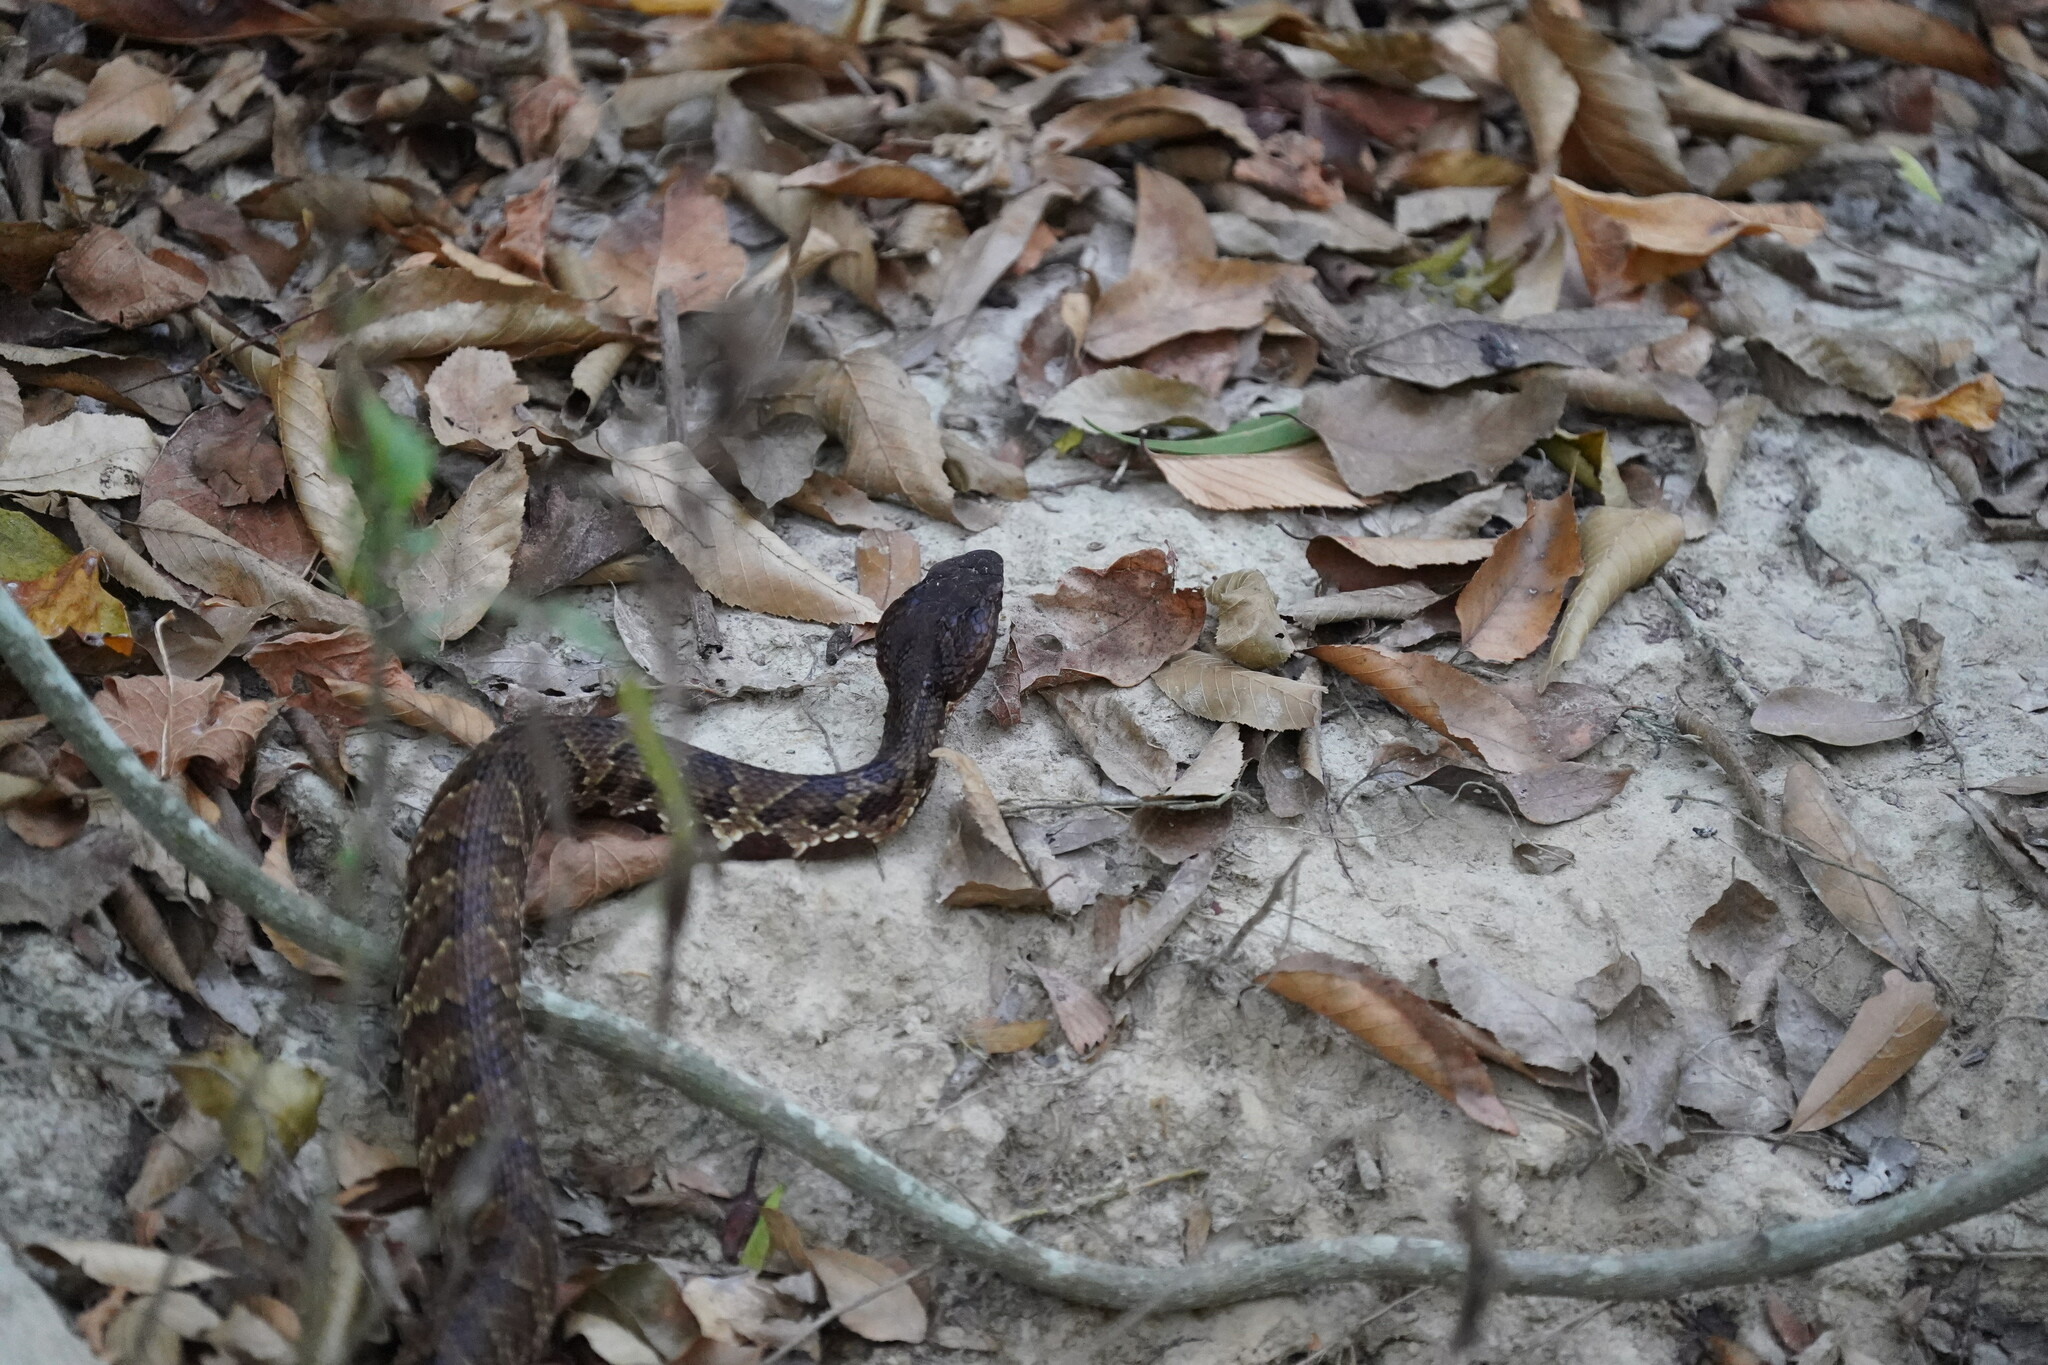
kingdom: Animalia
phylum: Chordata
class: Squamata
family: Viperidae
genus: Agkistrodon
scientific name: Agkistrodon piscivorus
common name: Cottonmouth
